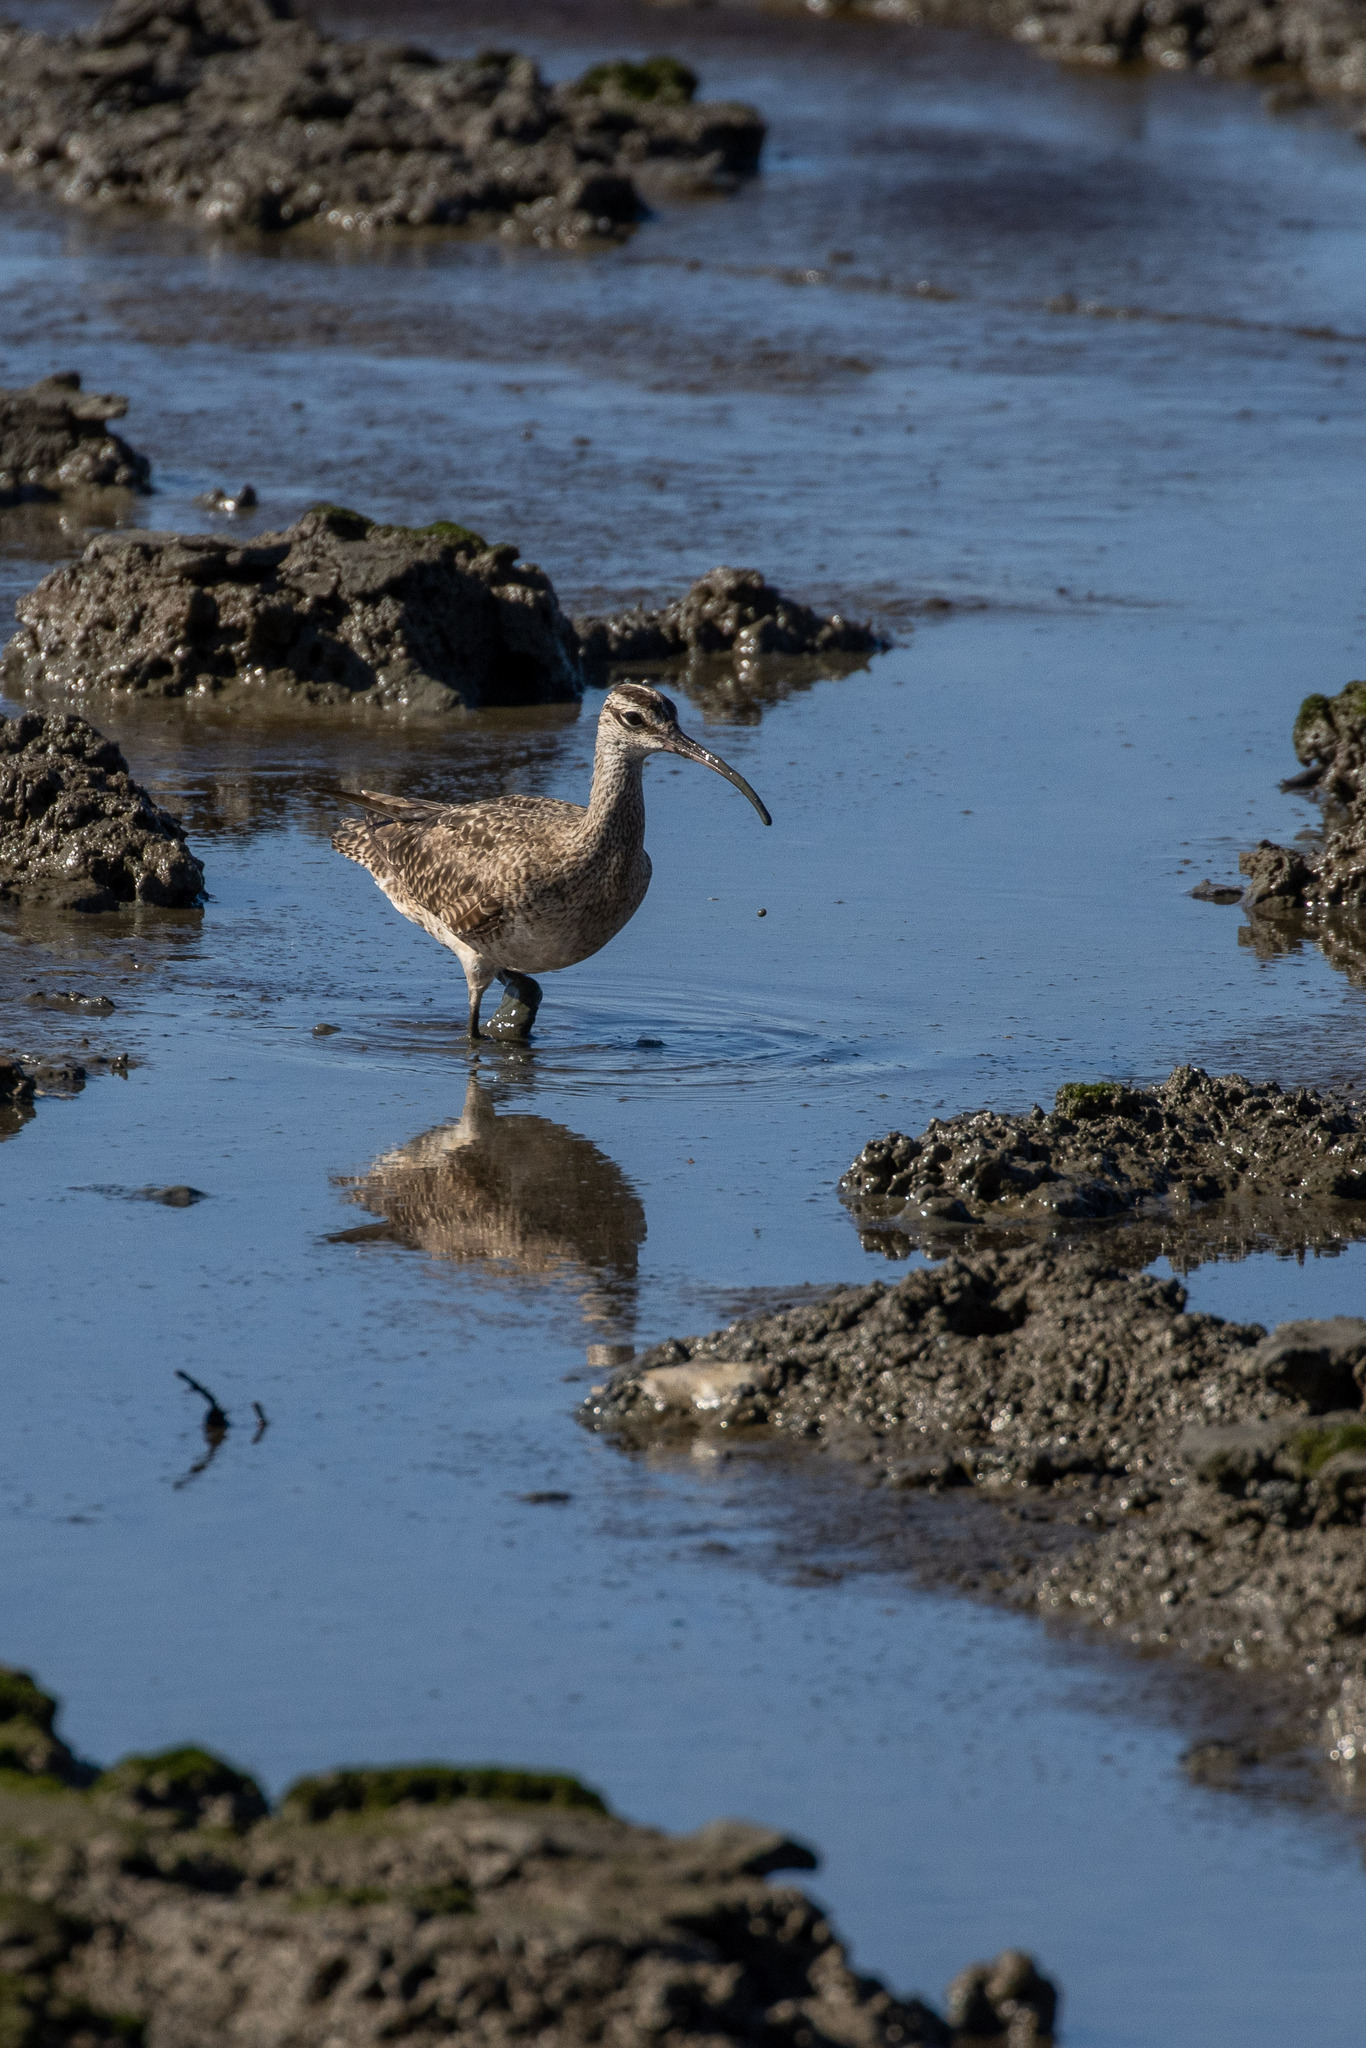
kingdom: Animalia
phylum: Chordata
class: Aves
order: Charadriiformes
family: Scolopacidae
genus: Numenius
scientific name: Numenius hudsonicus
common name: Hudsonian whimbrel
